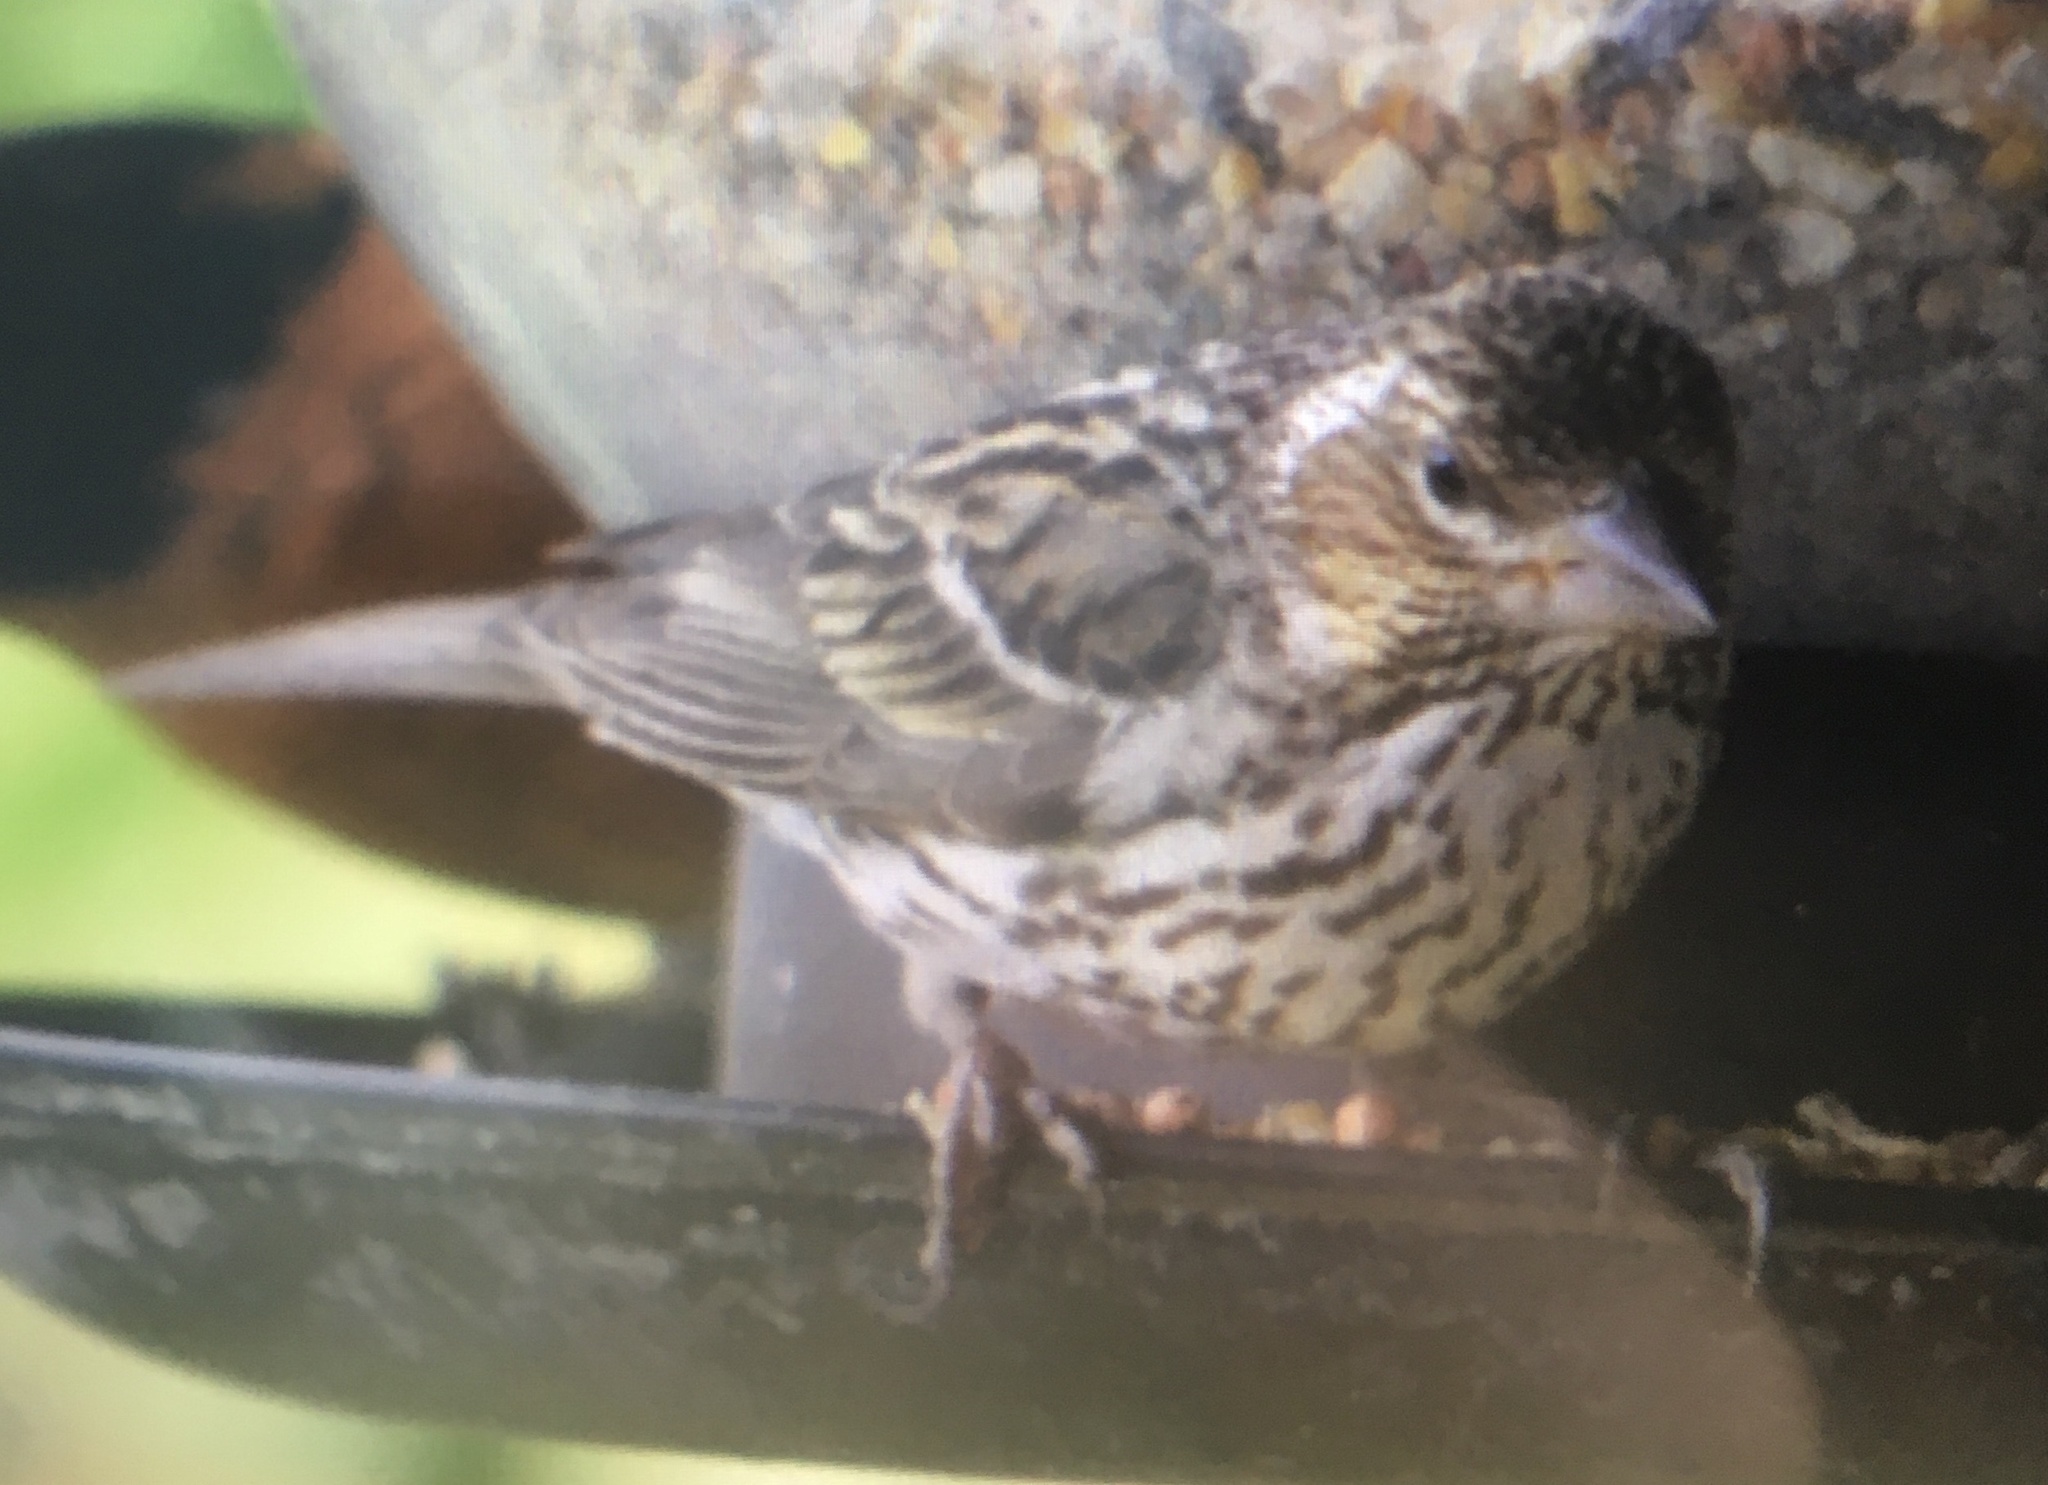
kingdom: Animalia
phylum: Chordata
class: Aves
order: Passeriformes
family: Fringillidae
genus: Haemorhous
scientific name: Haemorhous cassinii
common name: Cassin's finch
